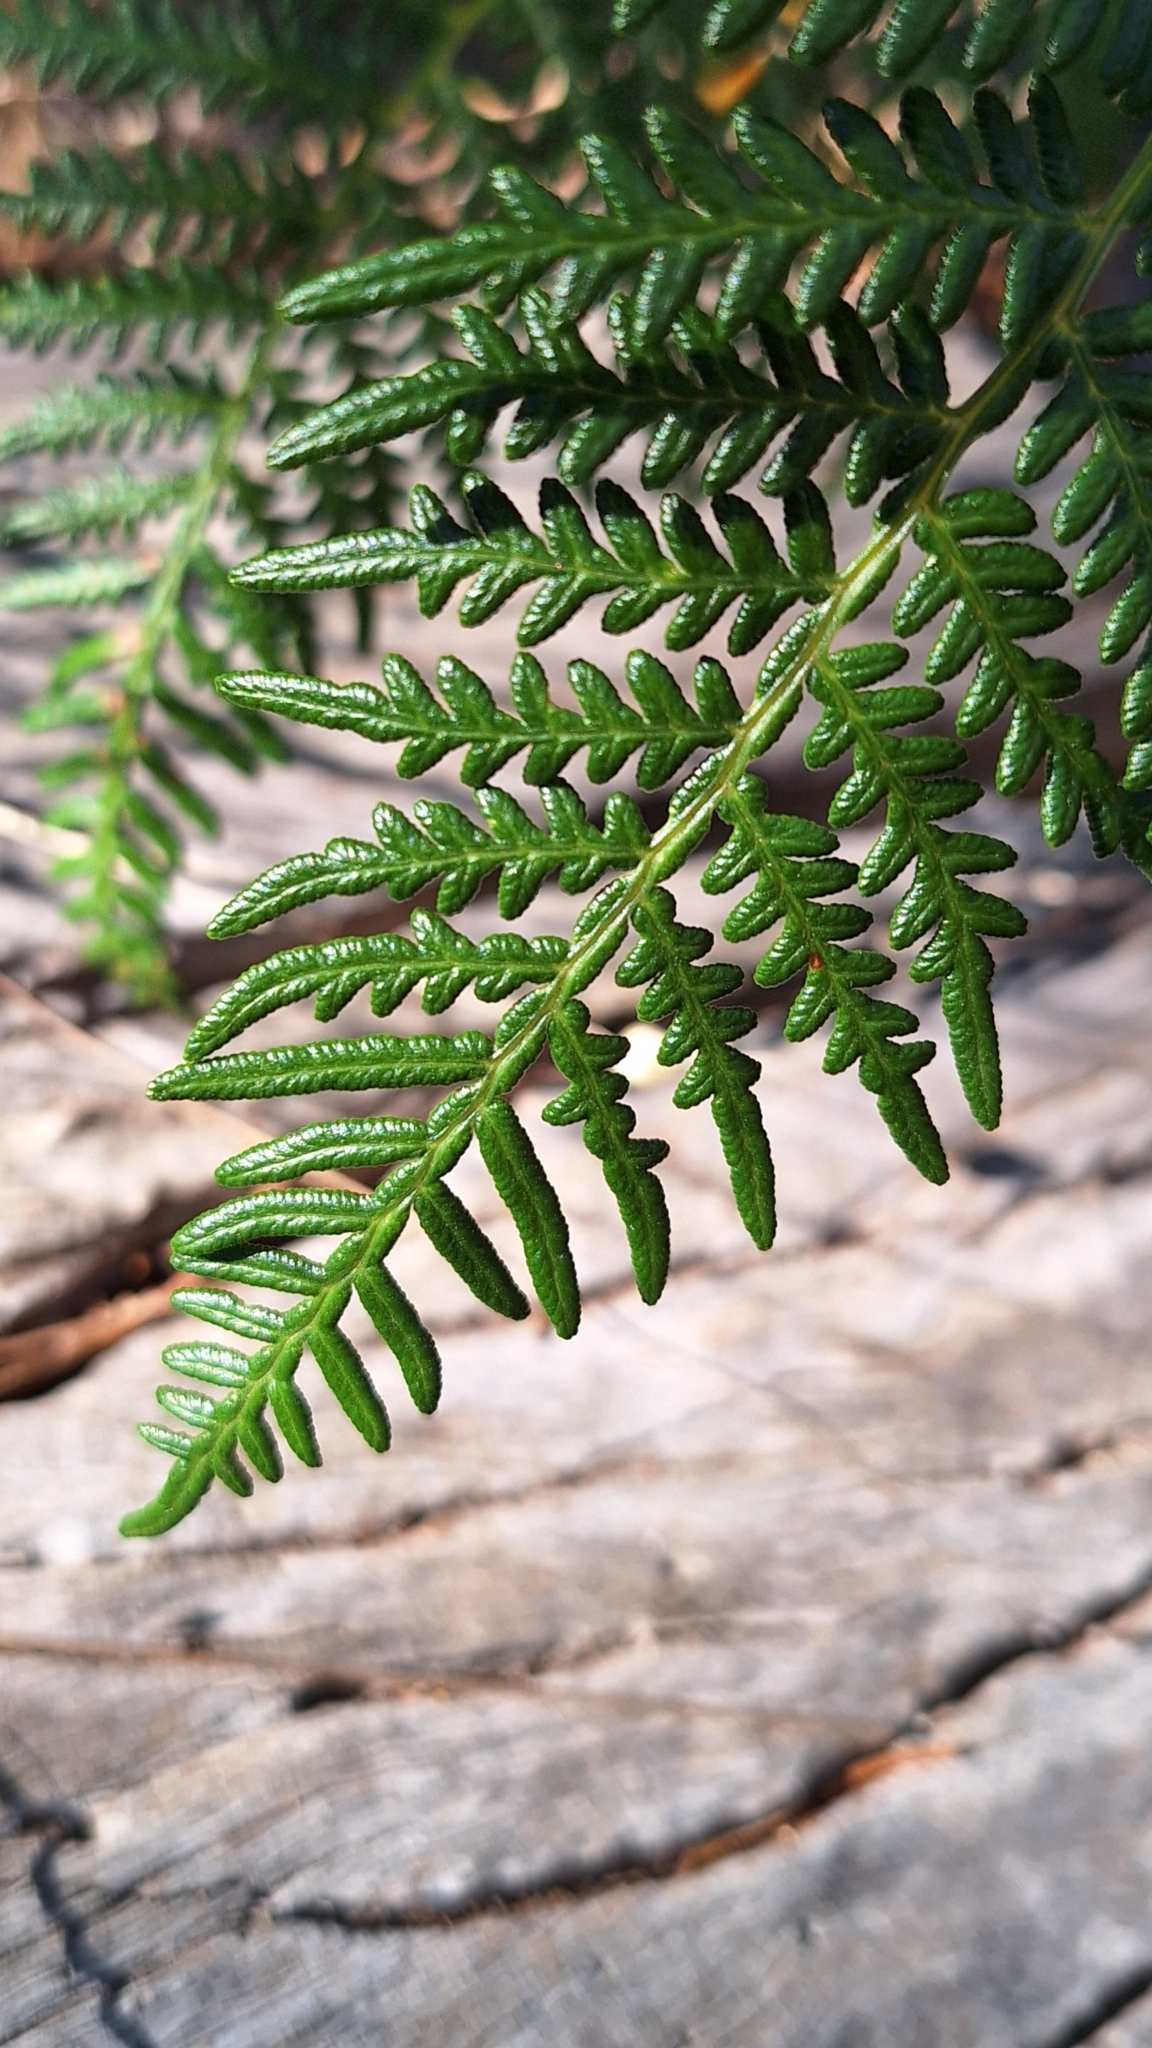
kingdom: Plantae
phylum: Tracheophyta
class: Polypodiopsida
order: Polypodiales
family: Dennstaedtiaceae
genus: Pteridium
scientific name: Pteridium esculentum
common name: Bracken fern
